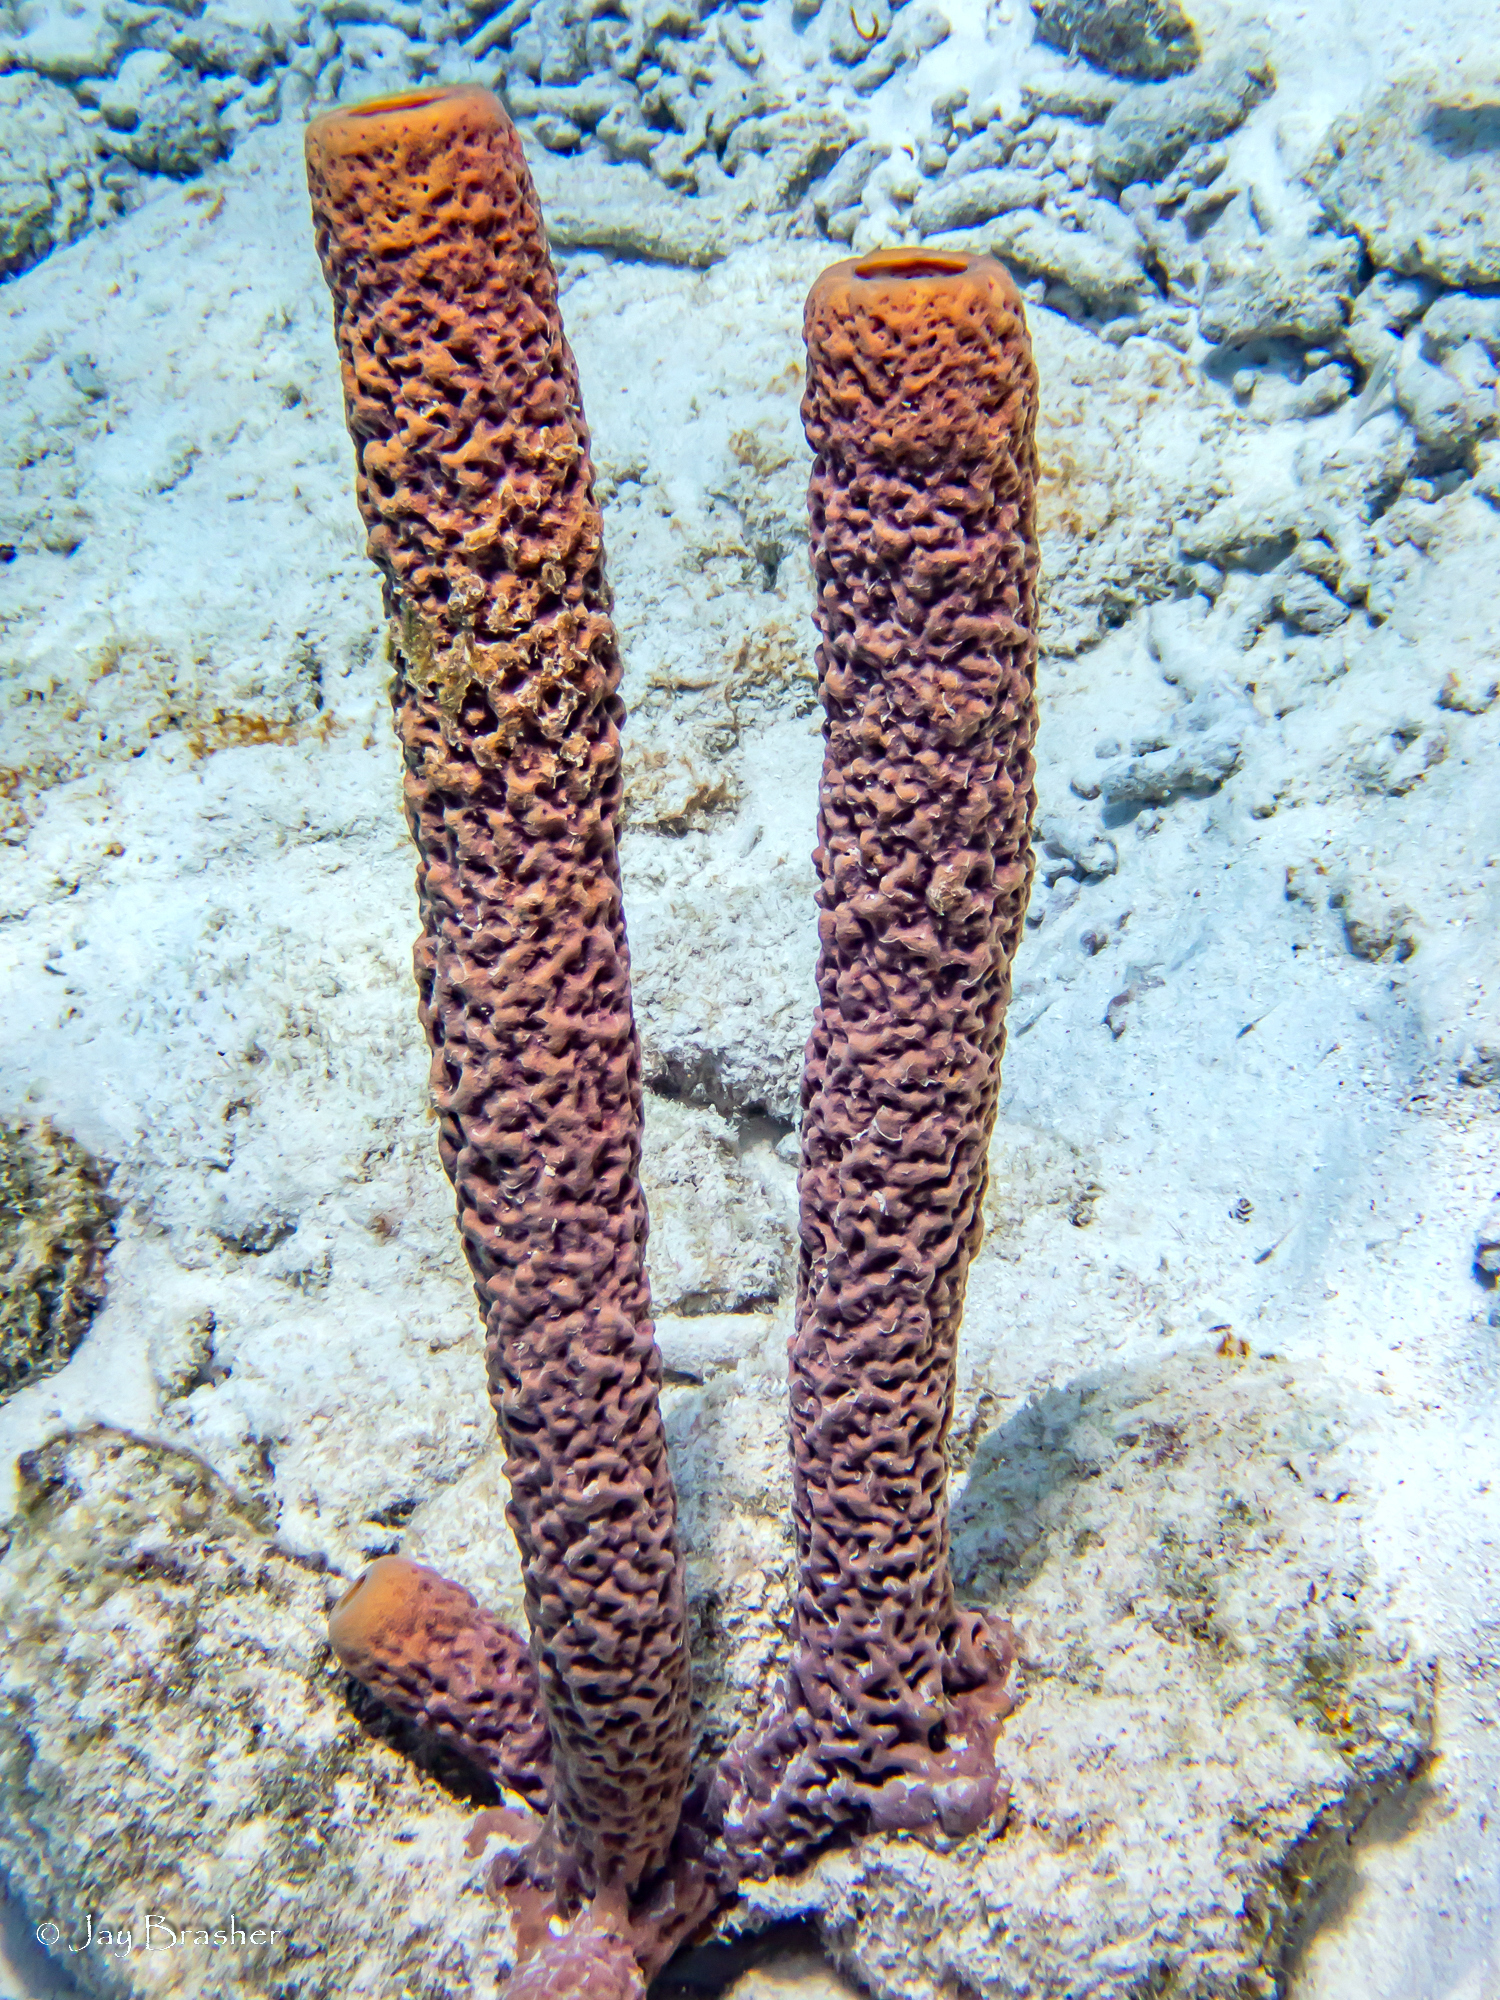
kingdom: Animalia
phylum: Porifera
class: Demospongiae
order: Verongiida
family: Aplysinidae
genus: Aplysina
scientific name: Aplysina archeri
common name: Stove-pipe sponge
